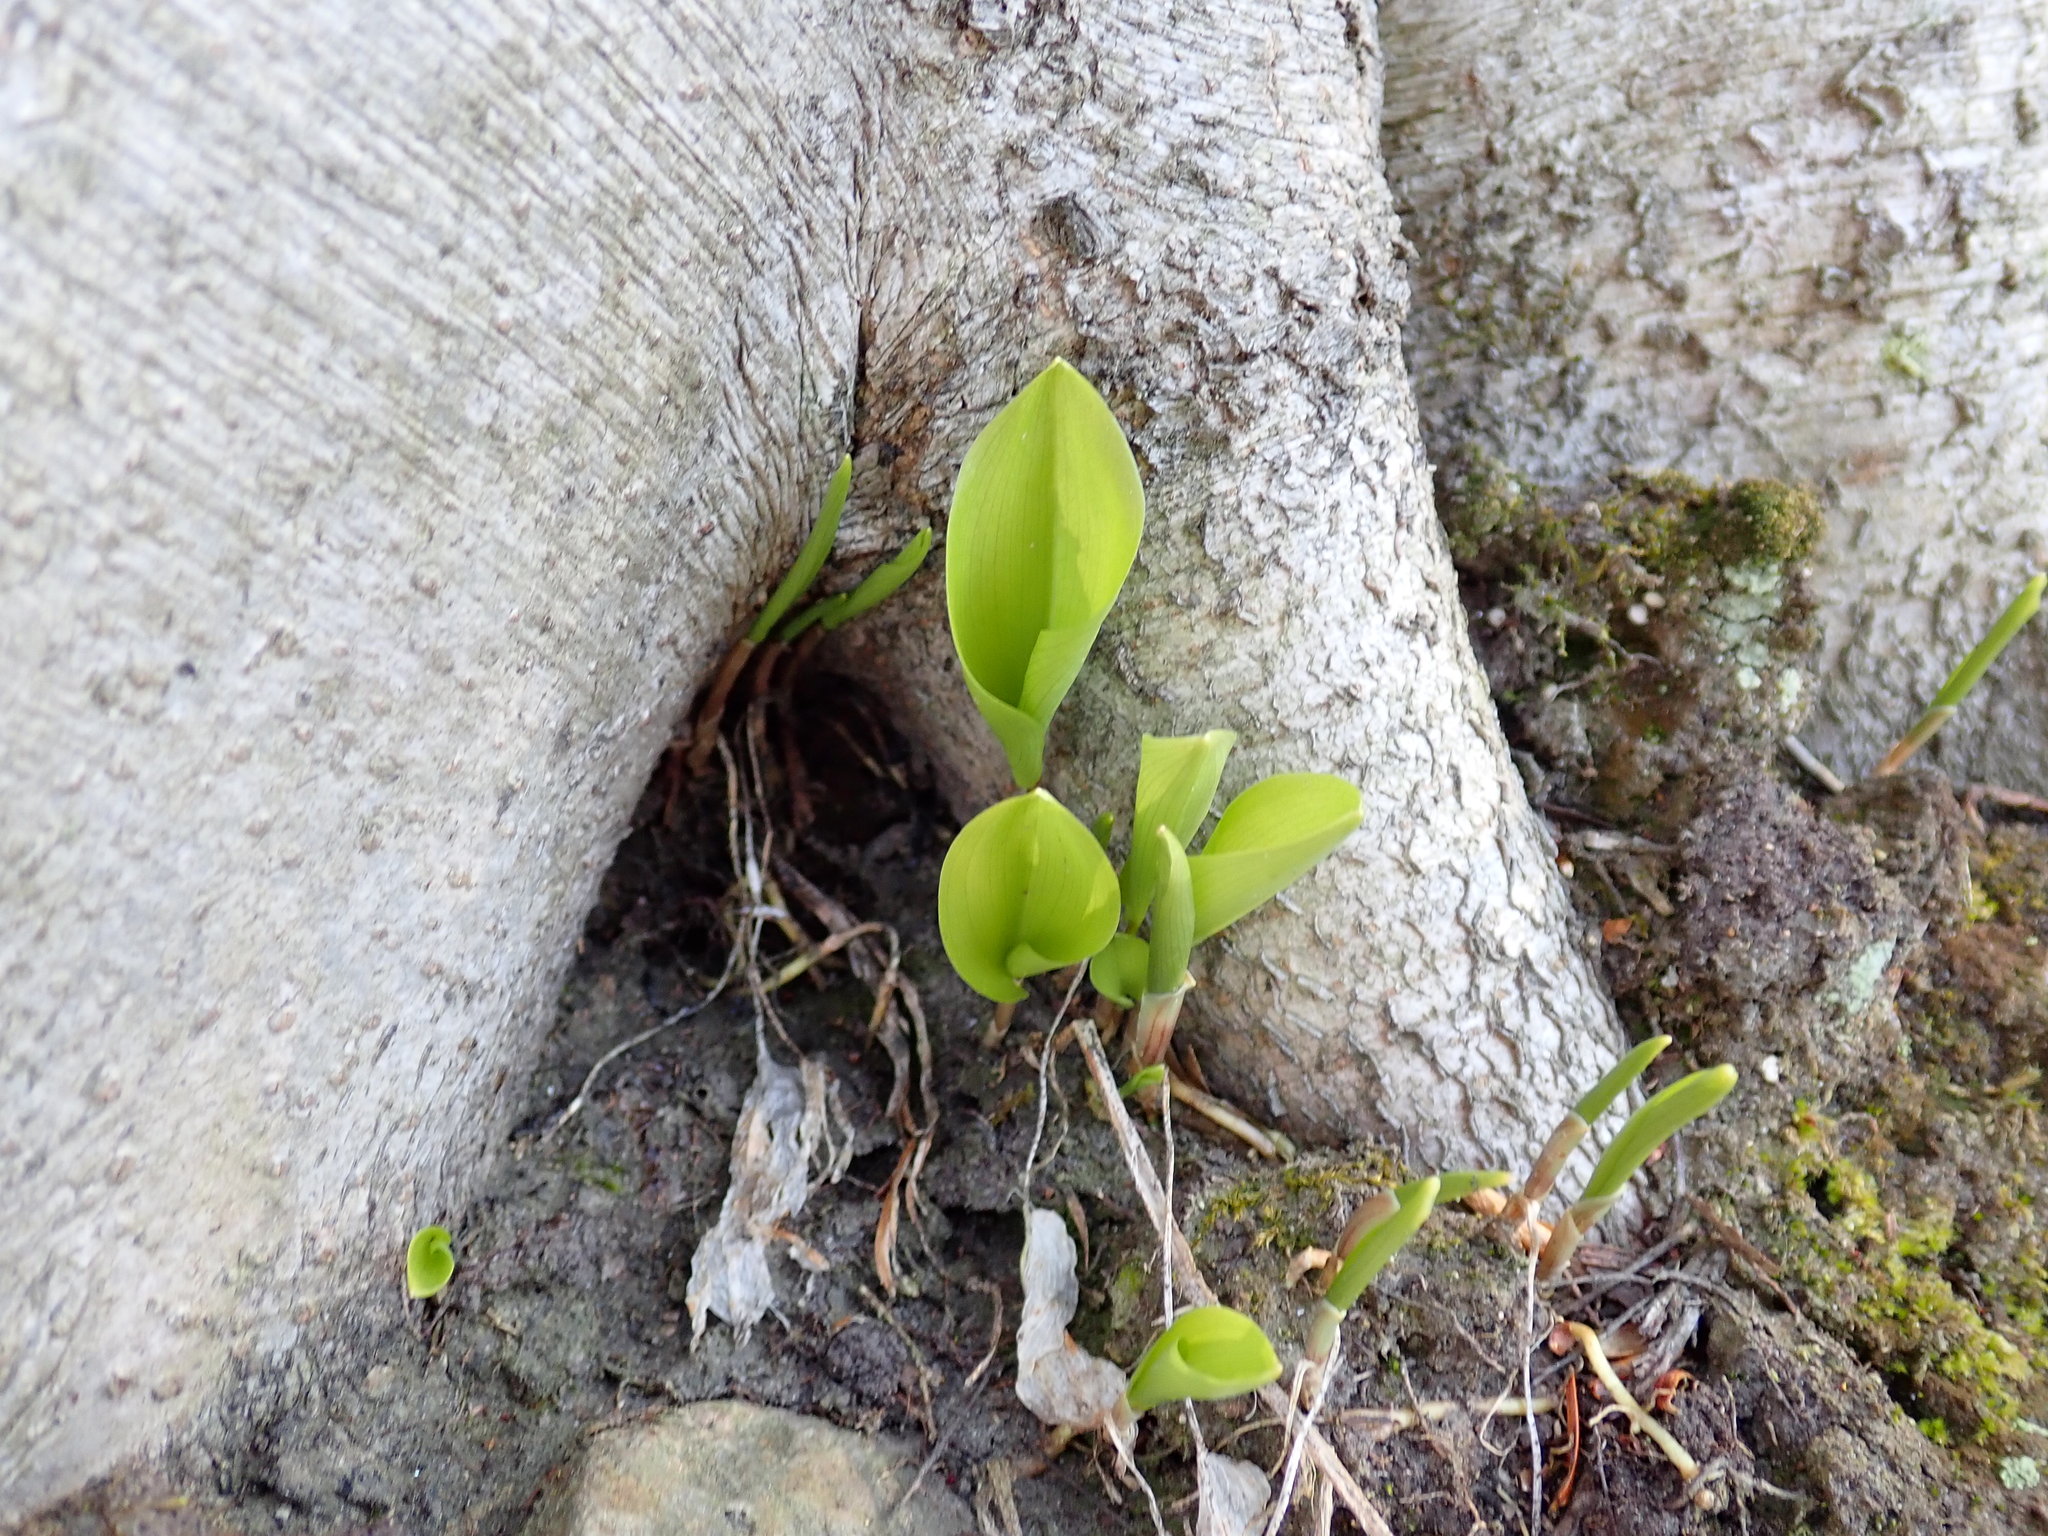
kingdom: Plantae
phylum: Tracheophyta
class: Liliopsida
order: Asparagales
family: Asparagaceae
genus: Maianthemum
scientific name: Maianthemum canadense
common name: False lily-of-the-valley
